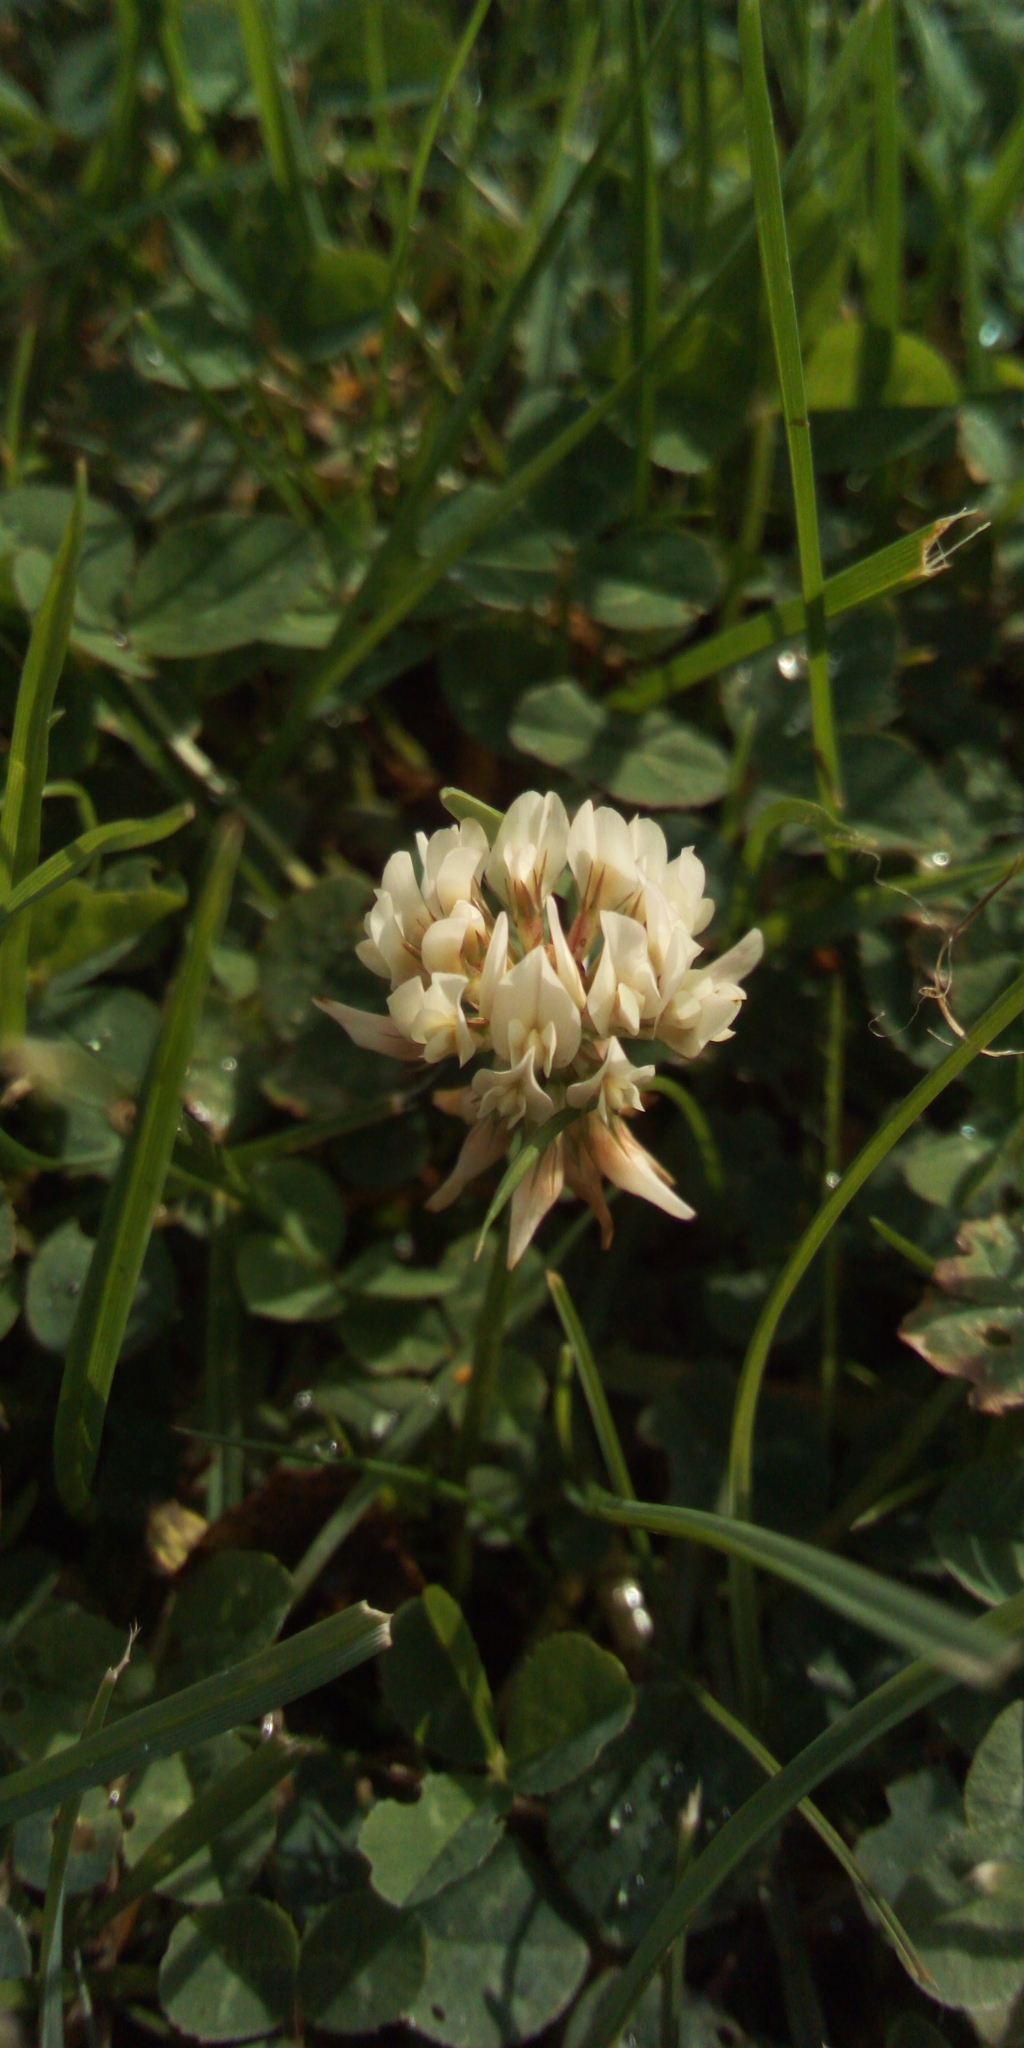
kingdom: Plantae
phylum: Tracheophyta
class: Magnoliopsida
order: Fabales
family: Fabaceae
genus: Trifolium
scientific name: Trifolium repens
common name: White clover
